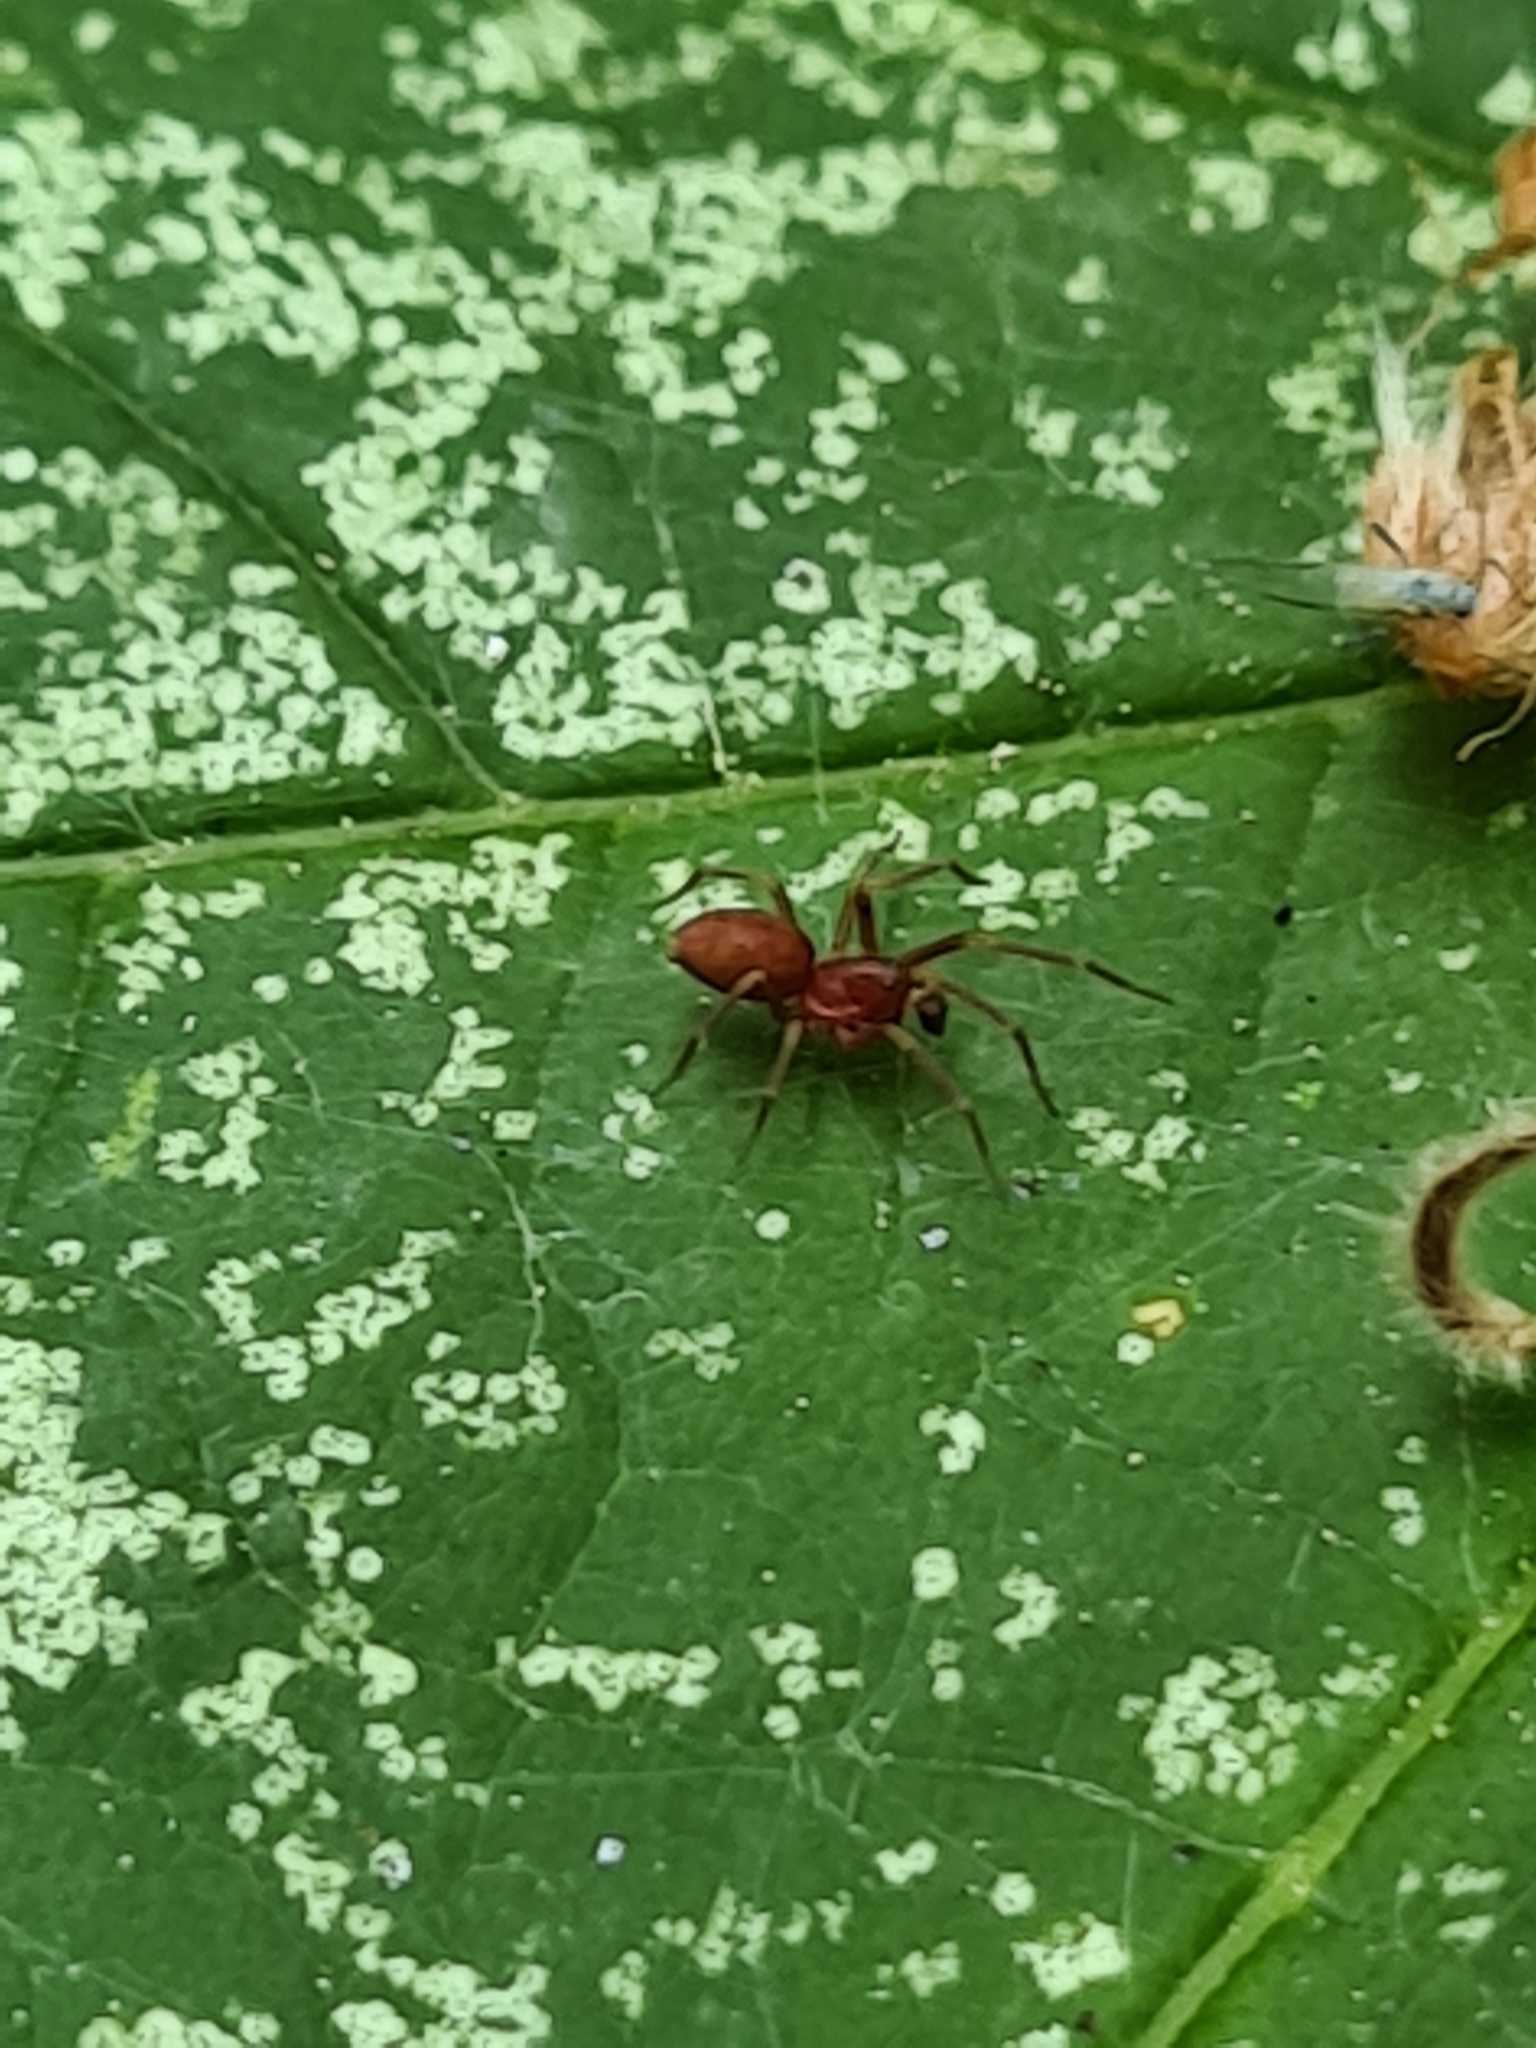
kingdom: Animalia
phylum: Arthropoda
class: Arachnida
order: Araneae
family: Dictynidae
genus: Nigma
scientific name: Nigma flavescens
